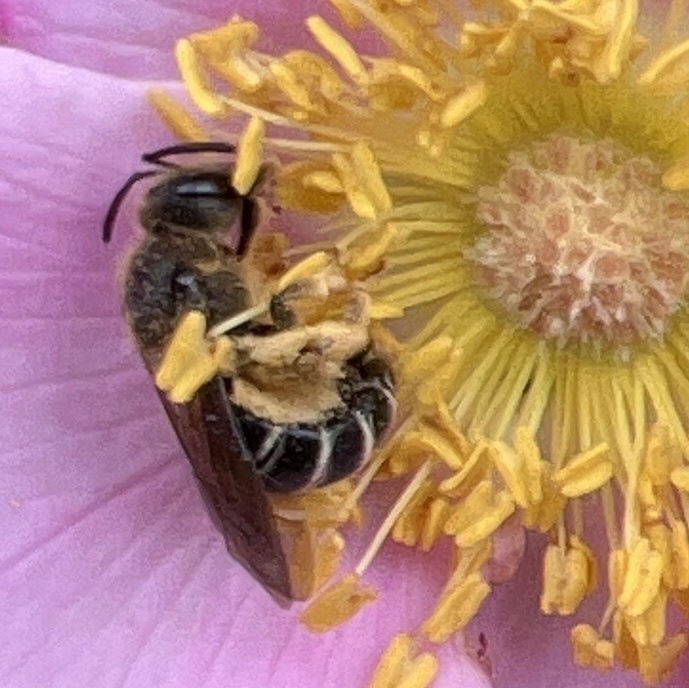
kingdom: Animalia
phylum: Arthropoda
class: Insecta
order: Hymenoptera
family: Halictidae
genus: Halictus
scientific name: Halictus rubicundus
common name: Orange-legged furrow bee
